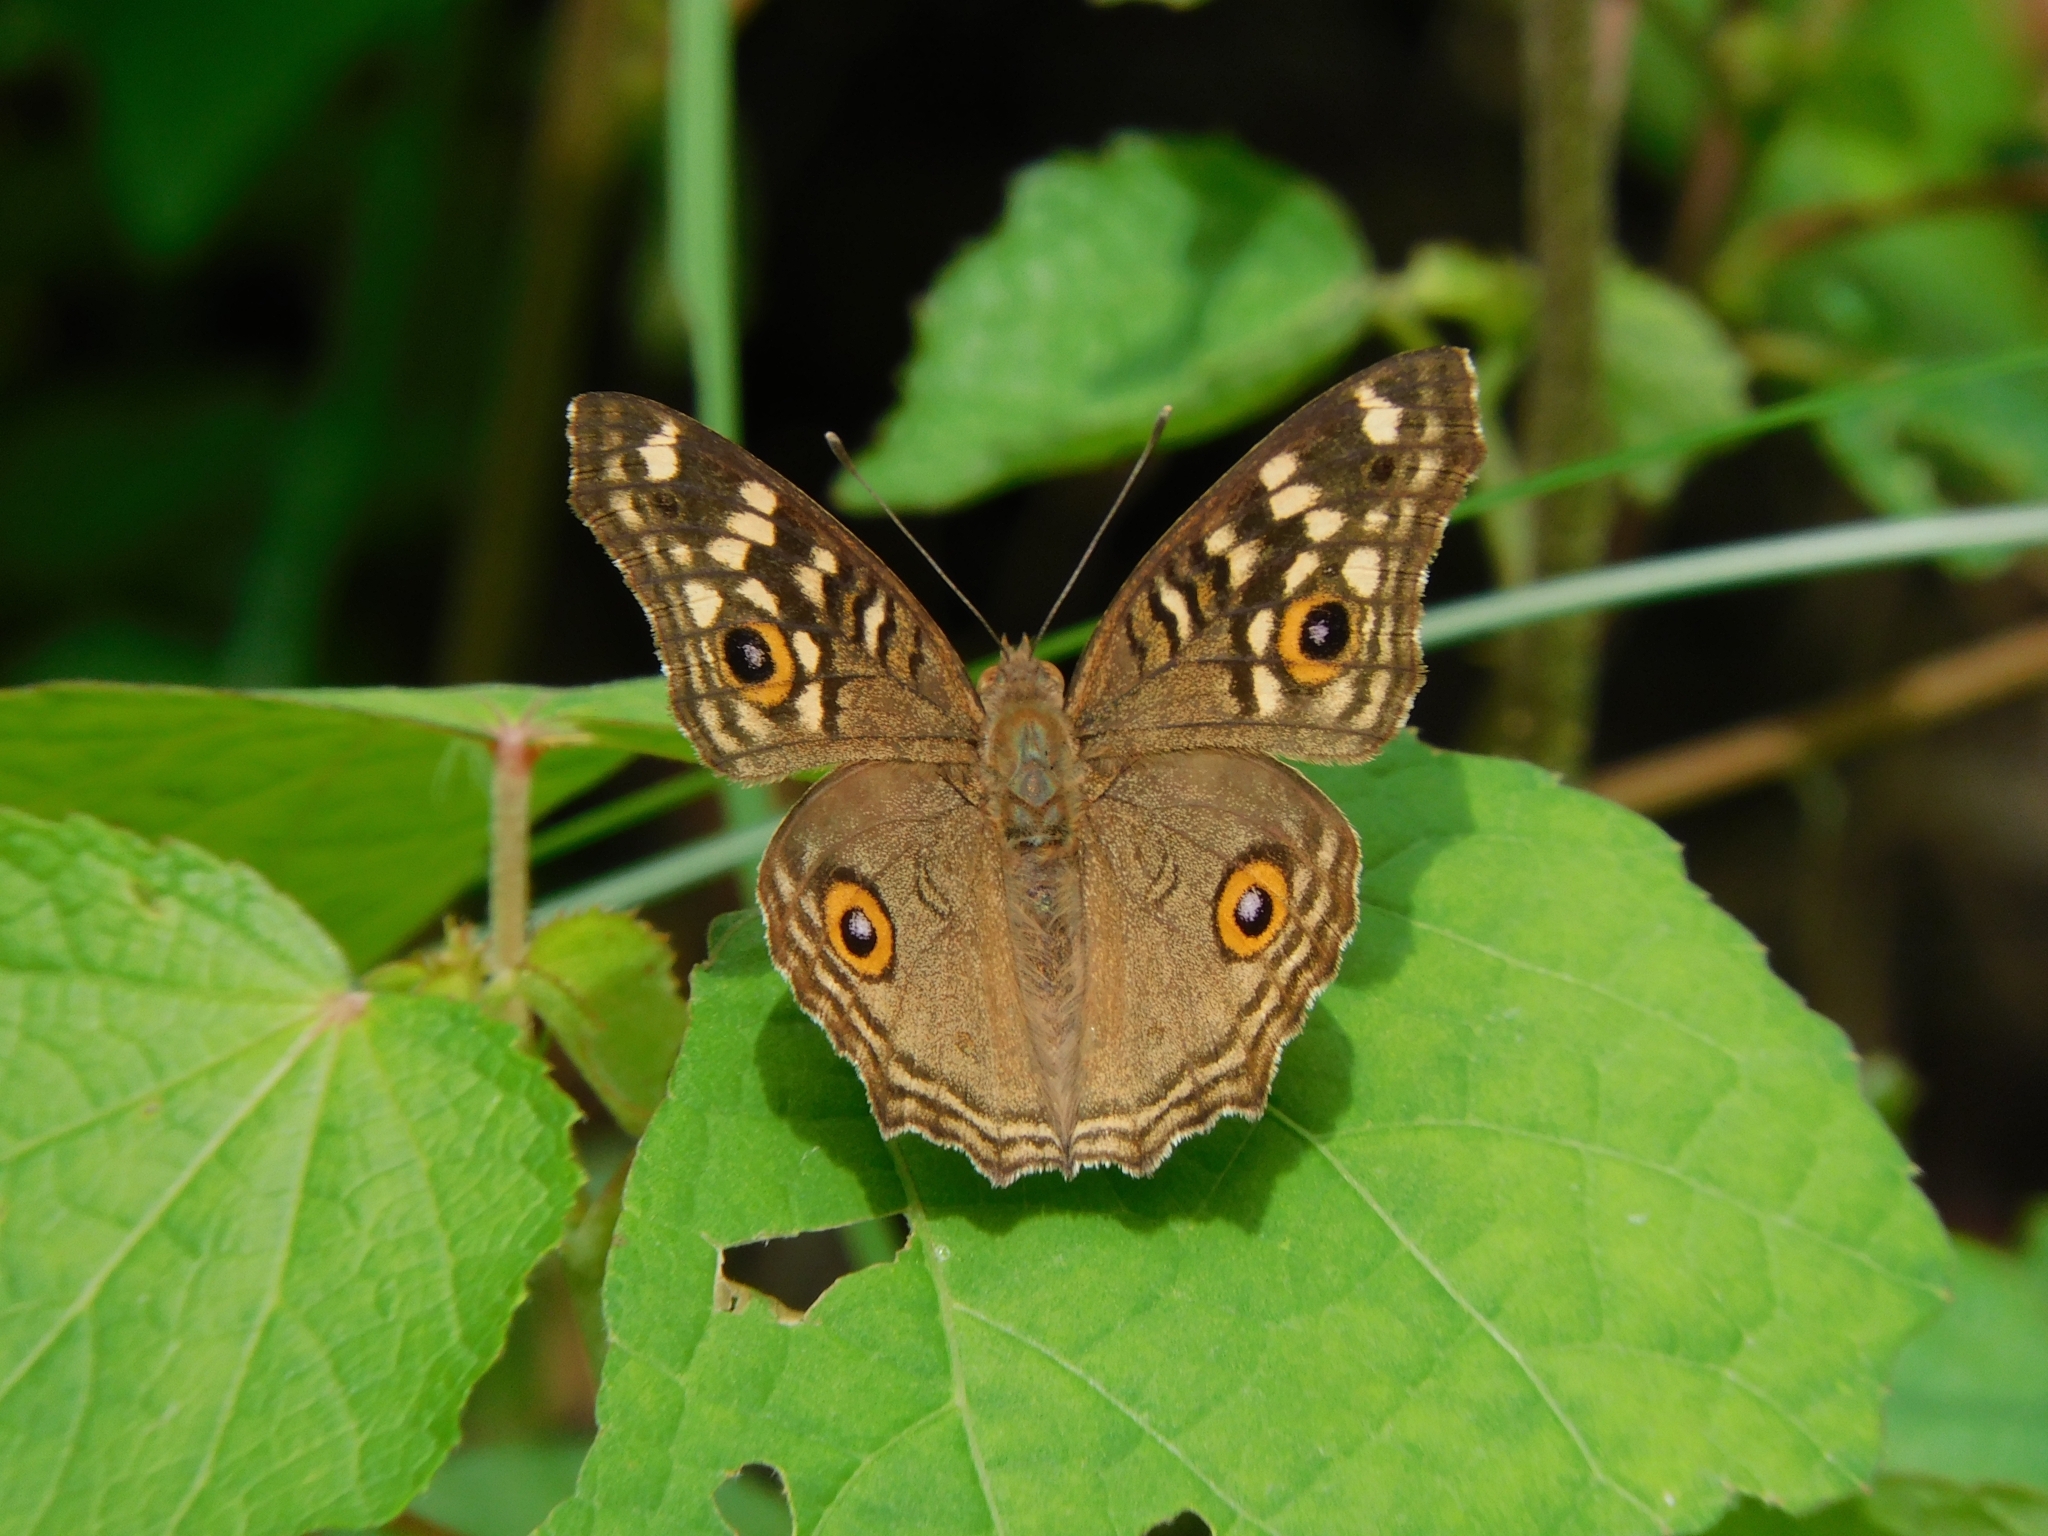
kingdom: Animalia
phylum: Arthropoda
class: Insecta
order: Lepidoptera
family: Nymphalidae
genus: Junonia
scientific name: Junonia lemonias
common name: Lemon pansy
